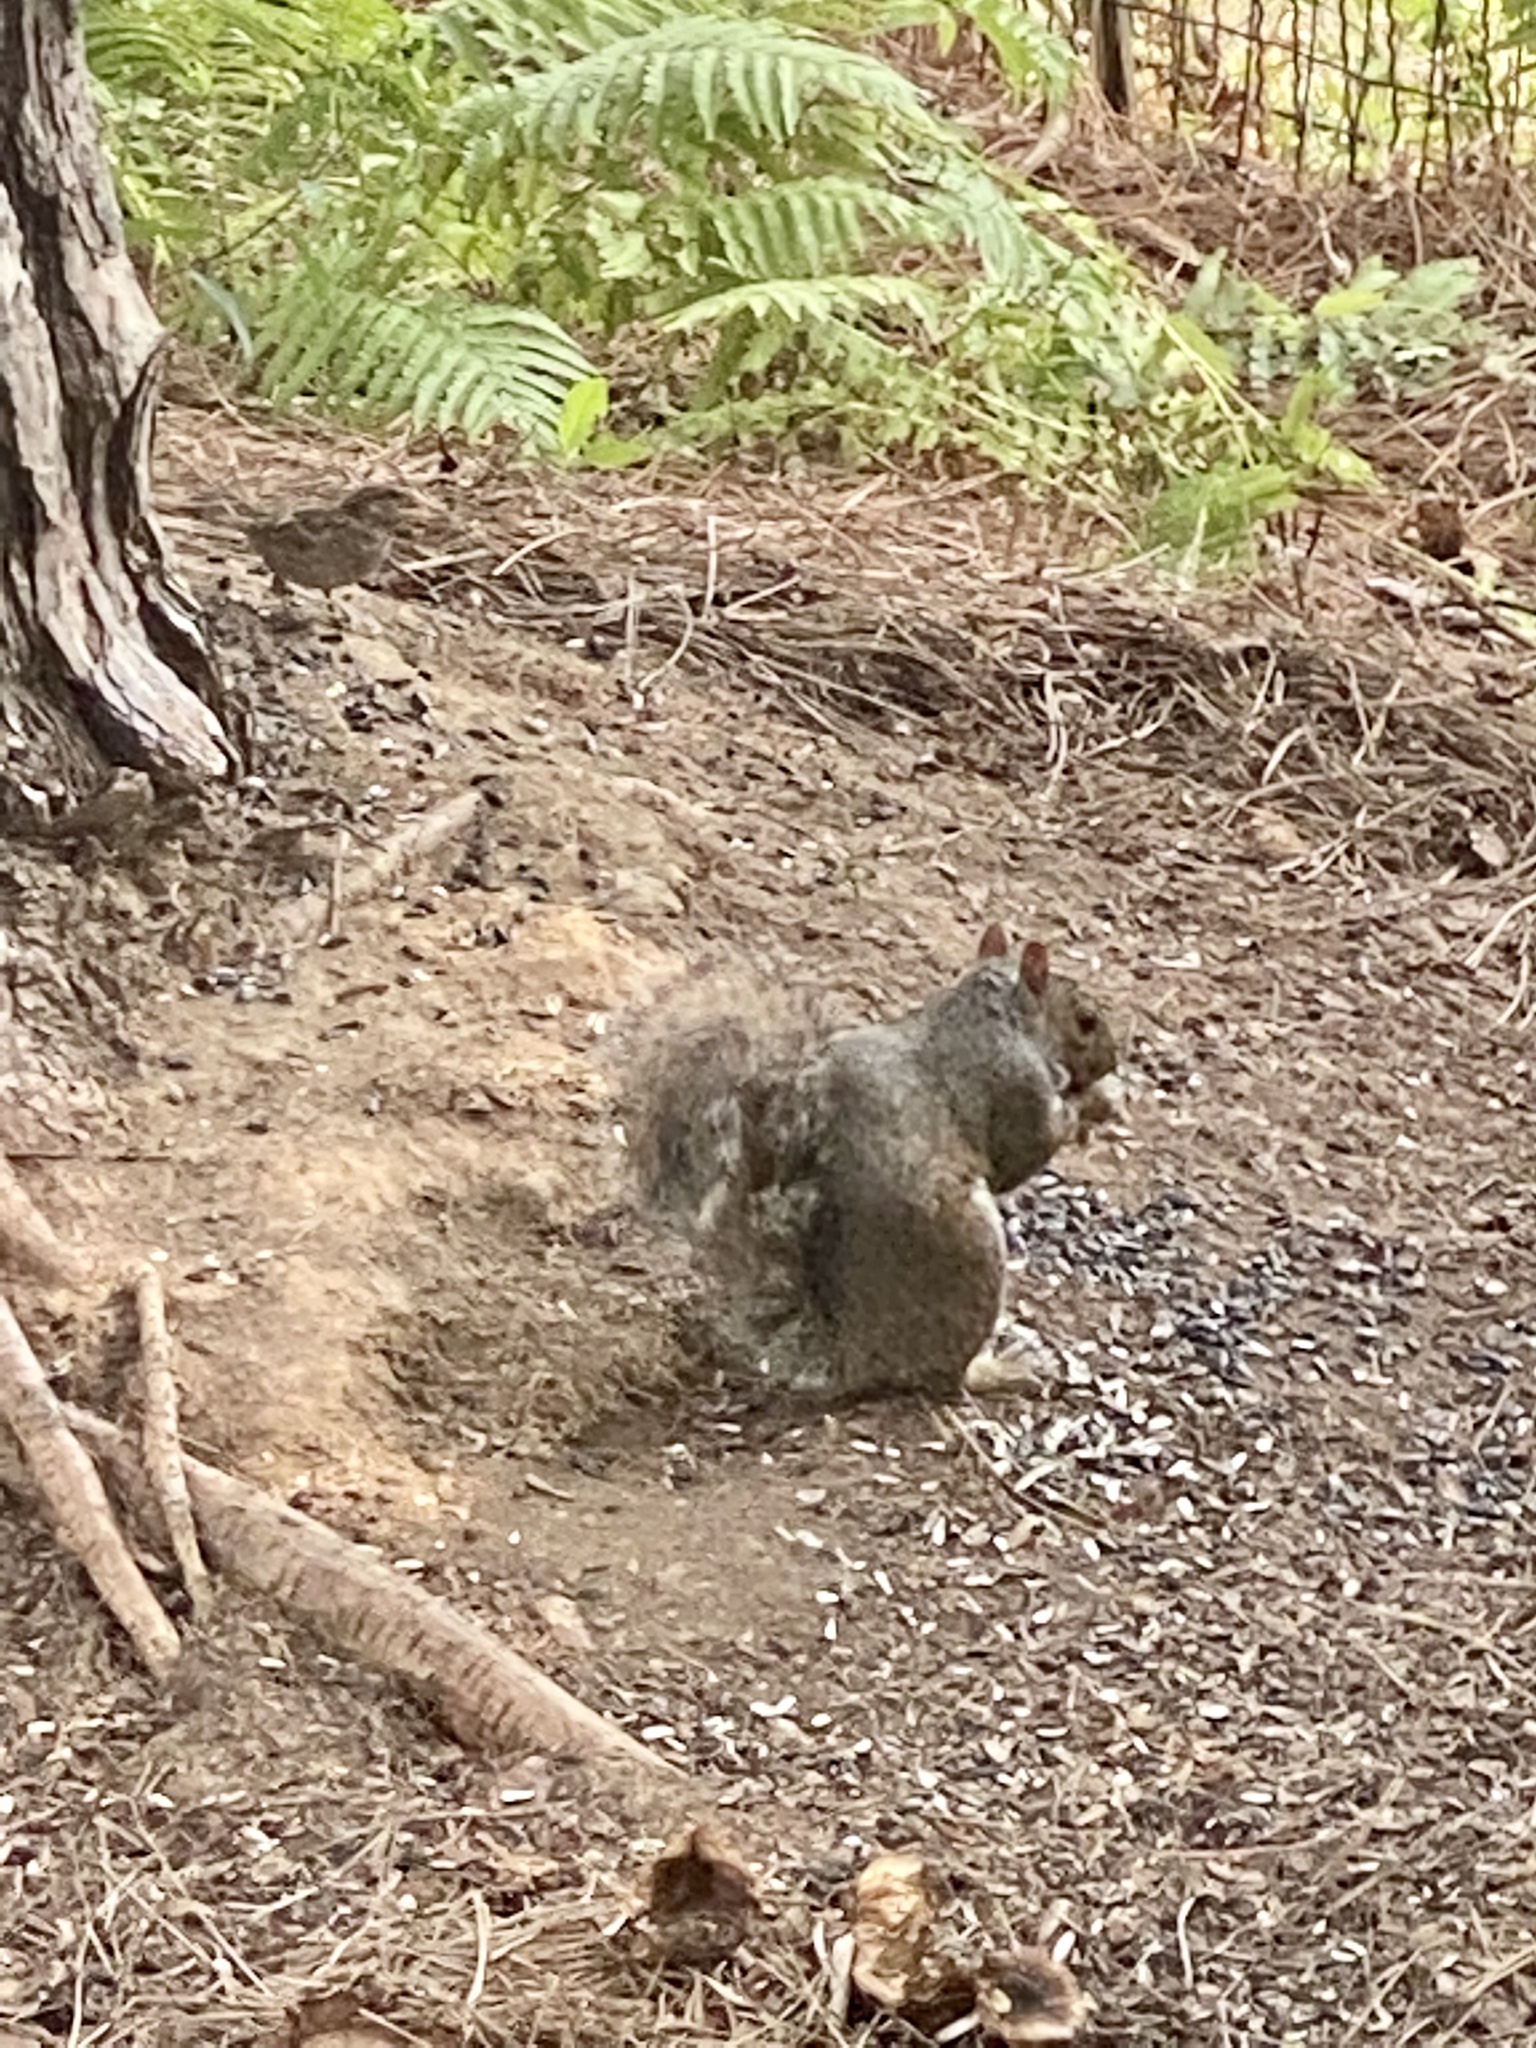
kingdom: Animalia
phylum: Chordata
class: Mammalia
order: Rodentia
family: Sciuridae
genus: Sciurus
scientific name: Sciurus carolinensis
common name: Eastern gray squirrel
